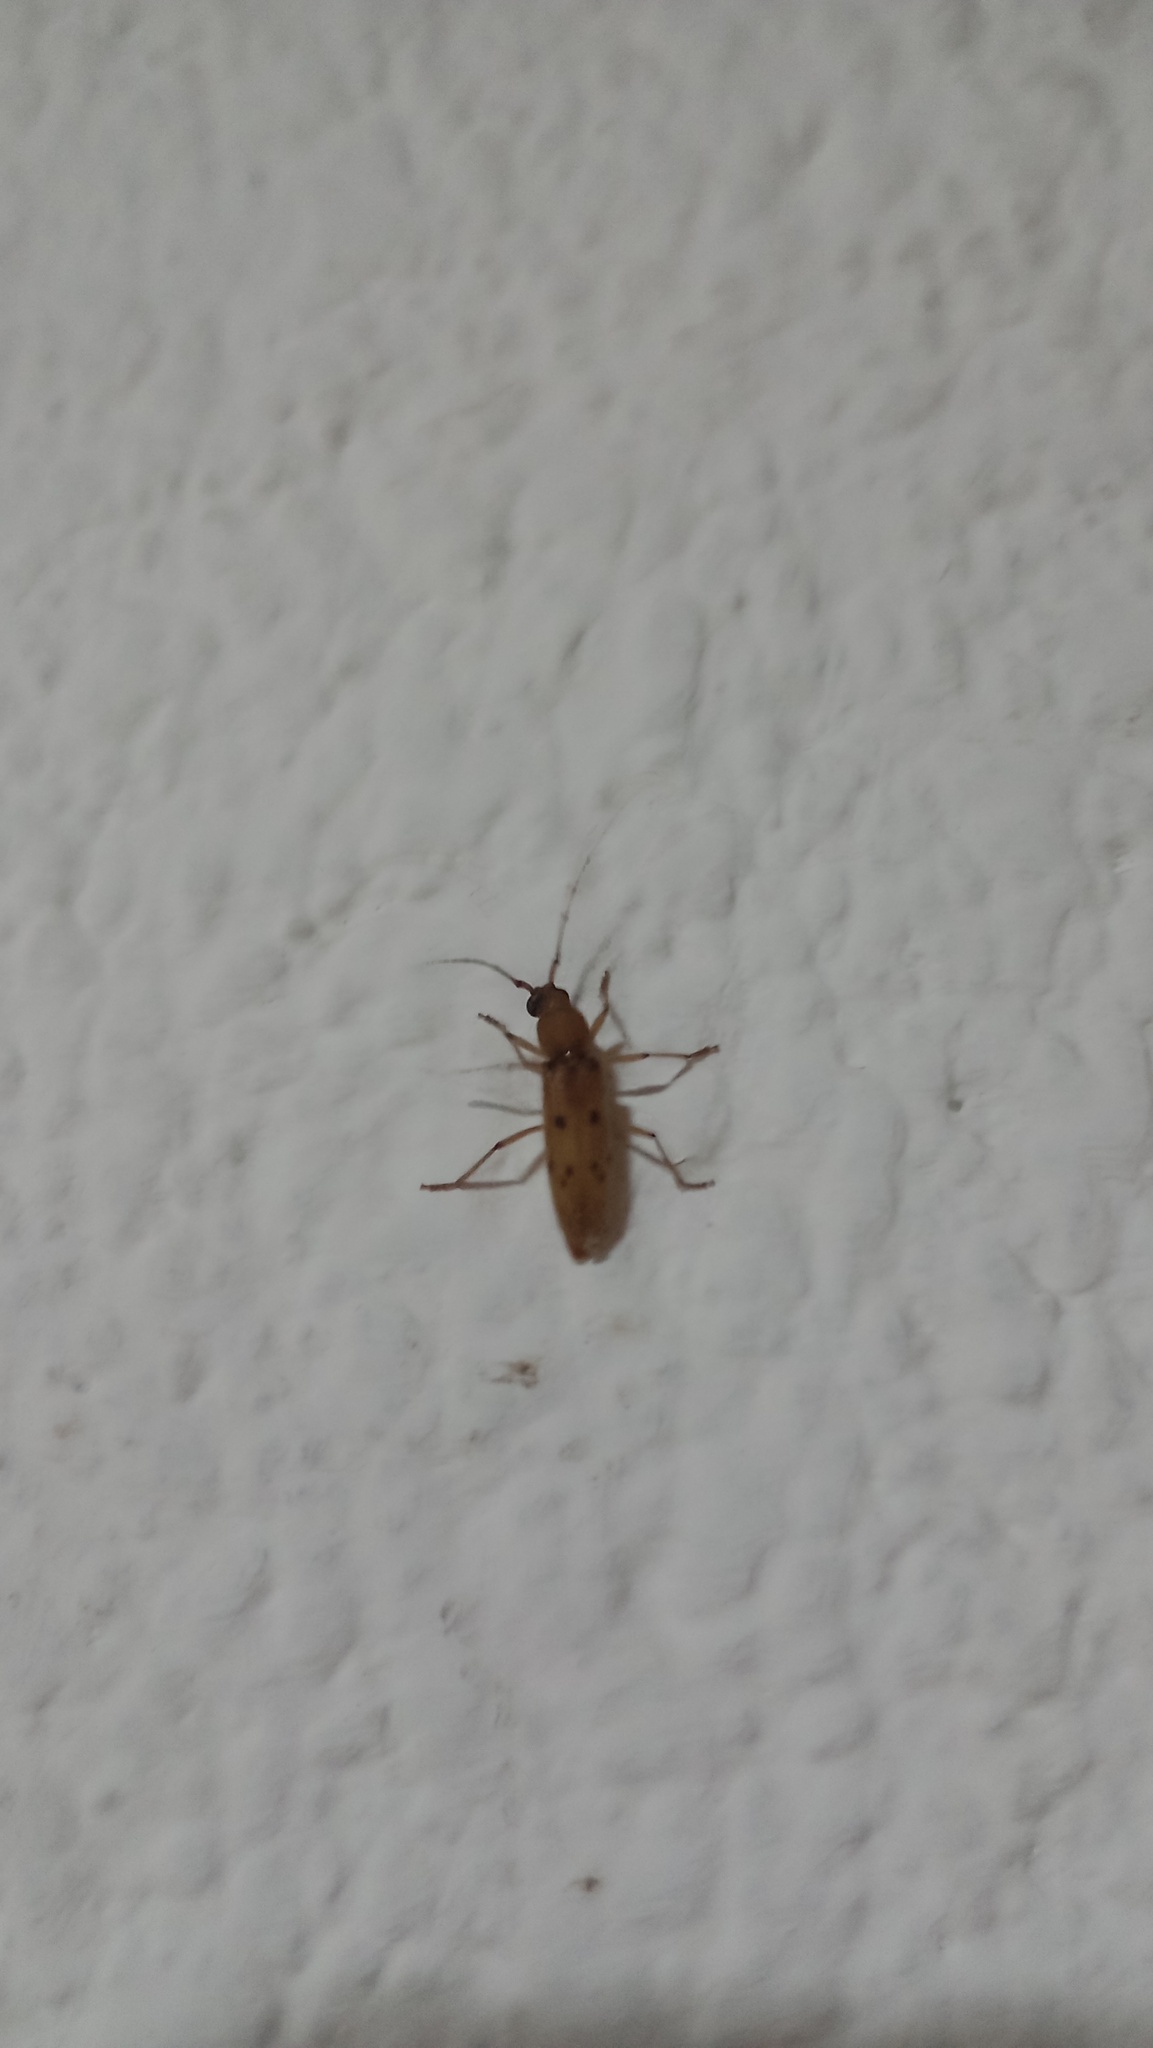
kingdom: Animalia
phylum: Arthropoda
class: Insecta
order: Coleoptera
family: Cerambycidae
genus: Achryson
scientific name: Achryson surinamum
